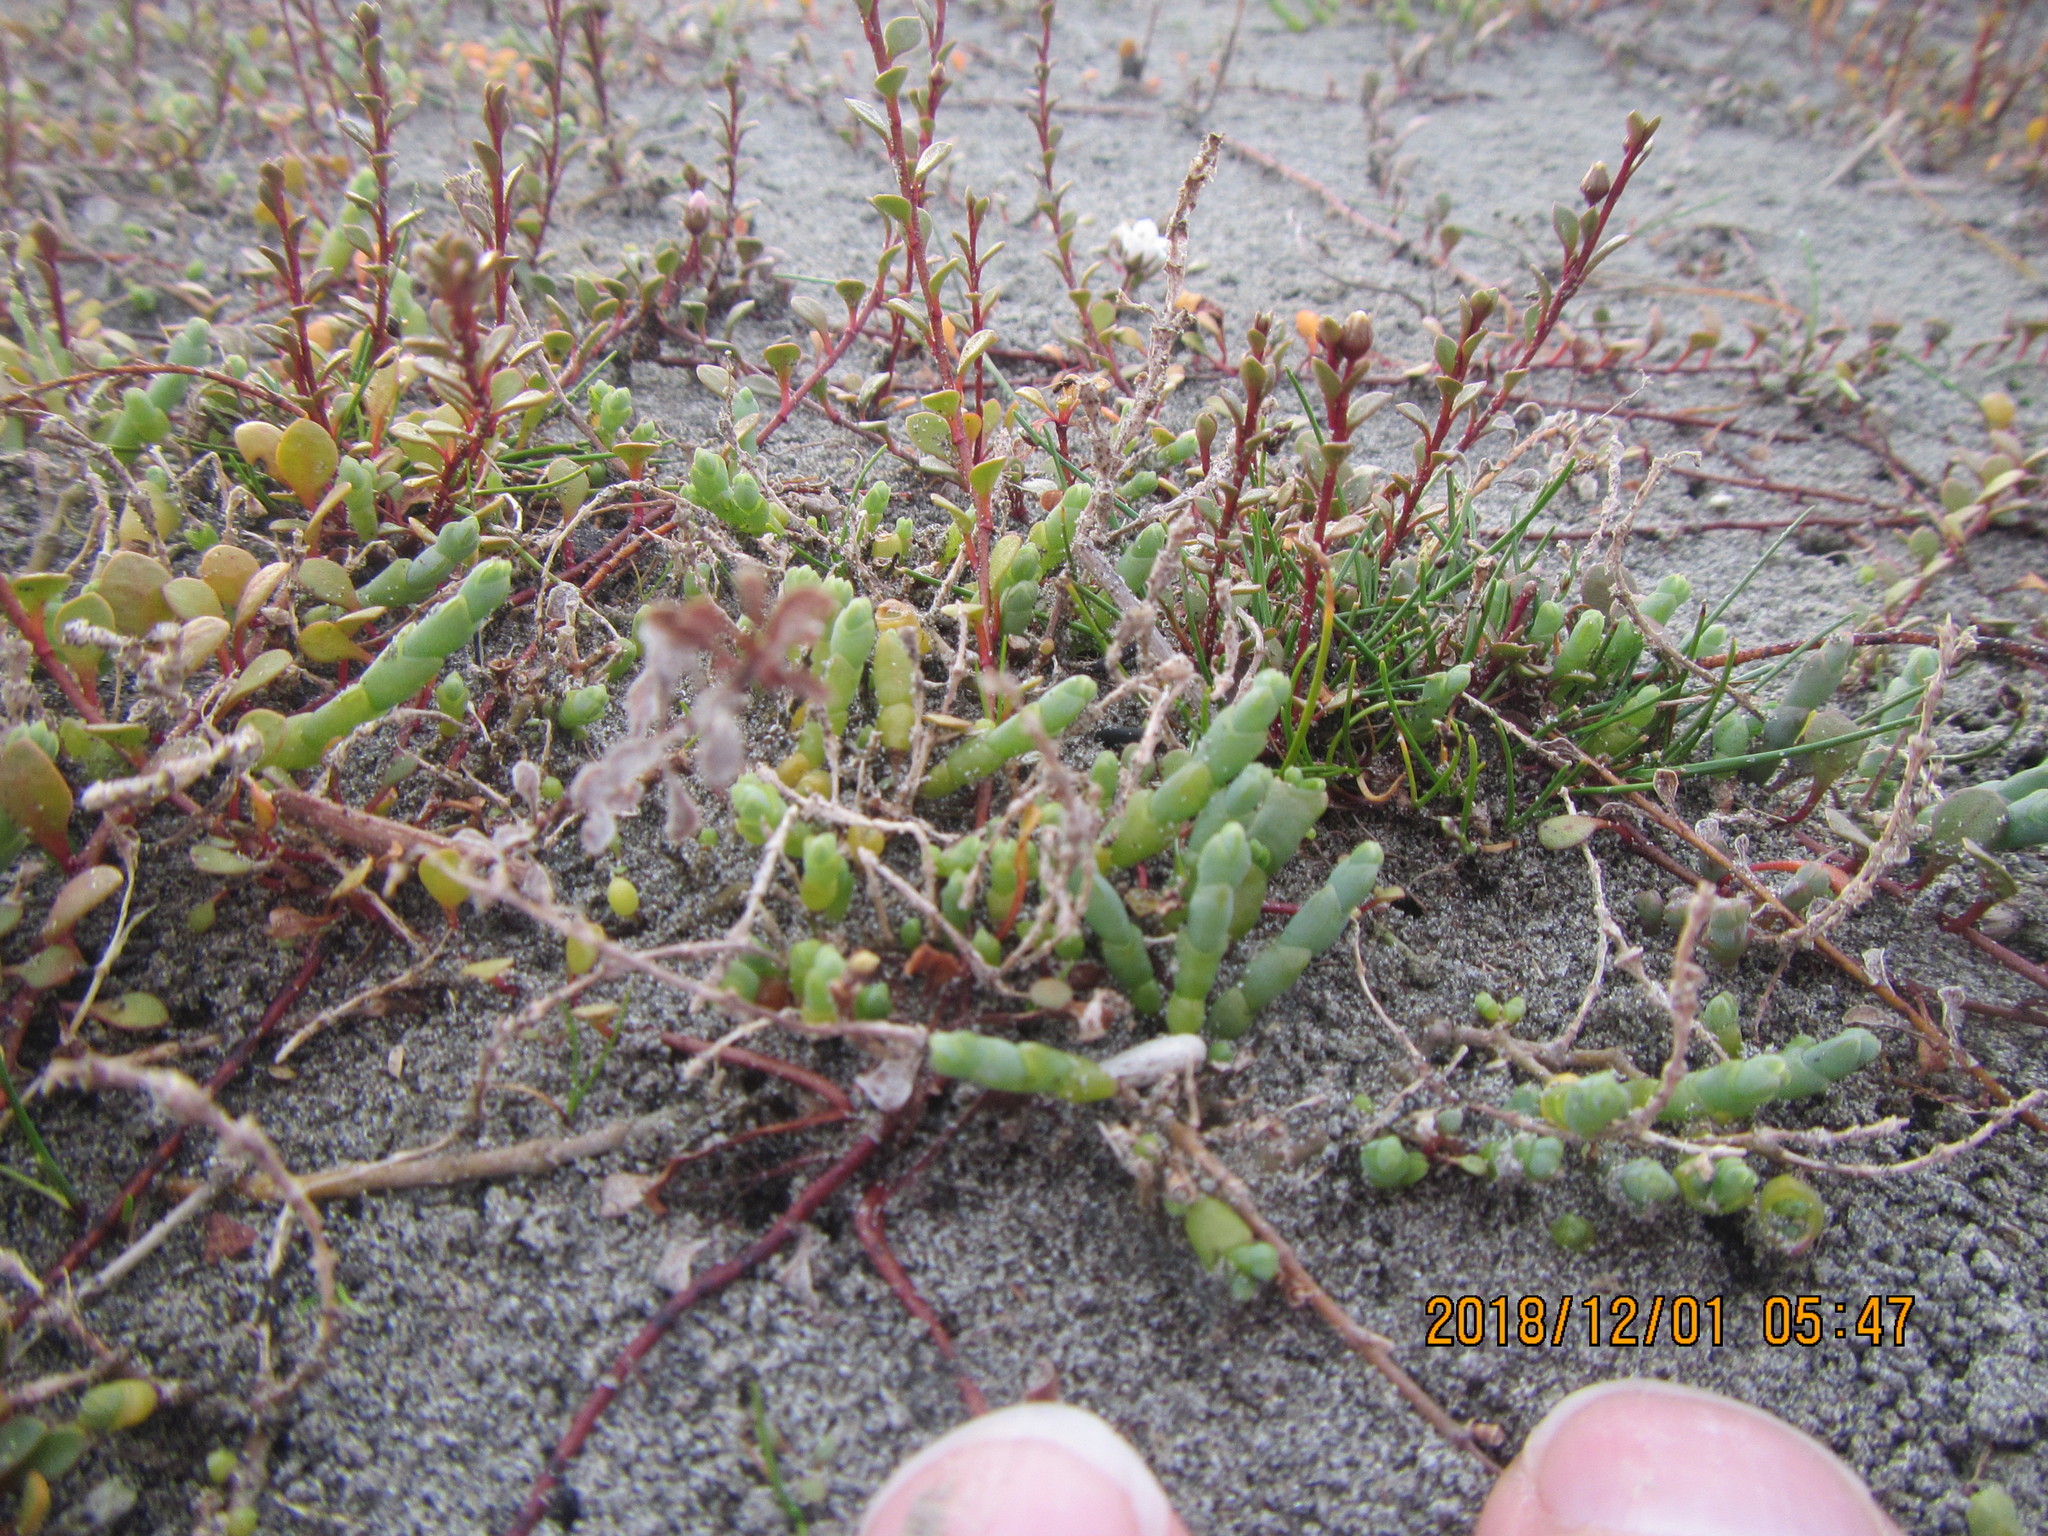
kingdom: Plantae
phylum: Tracheophyta
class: Magnoliopsida
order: Caryophyllales
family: Amaranthaceae
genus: Salicornia
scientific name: Salicornia quinqueflora
